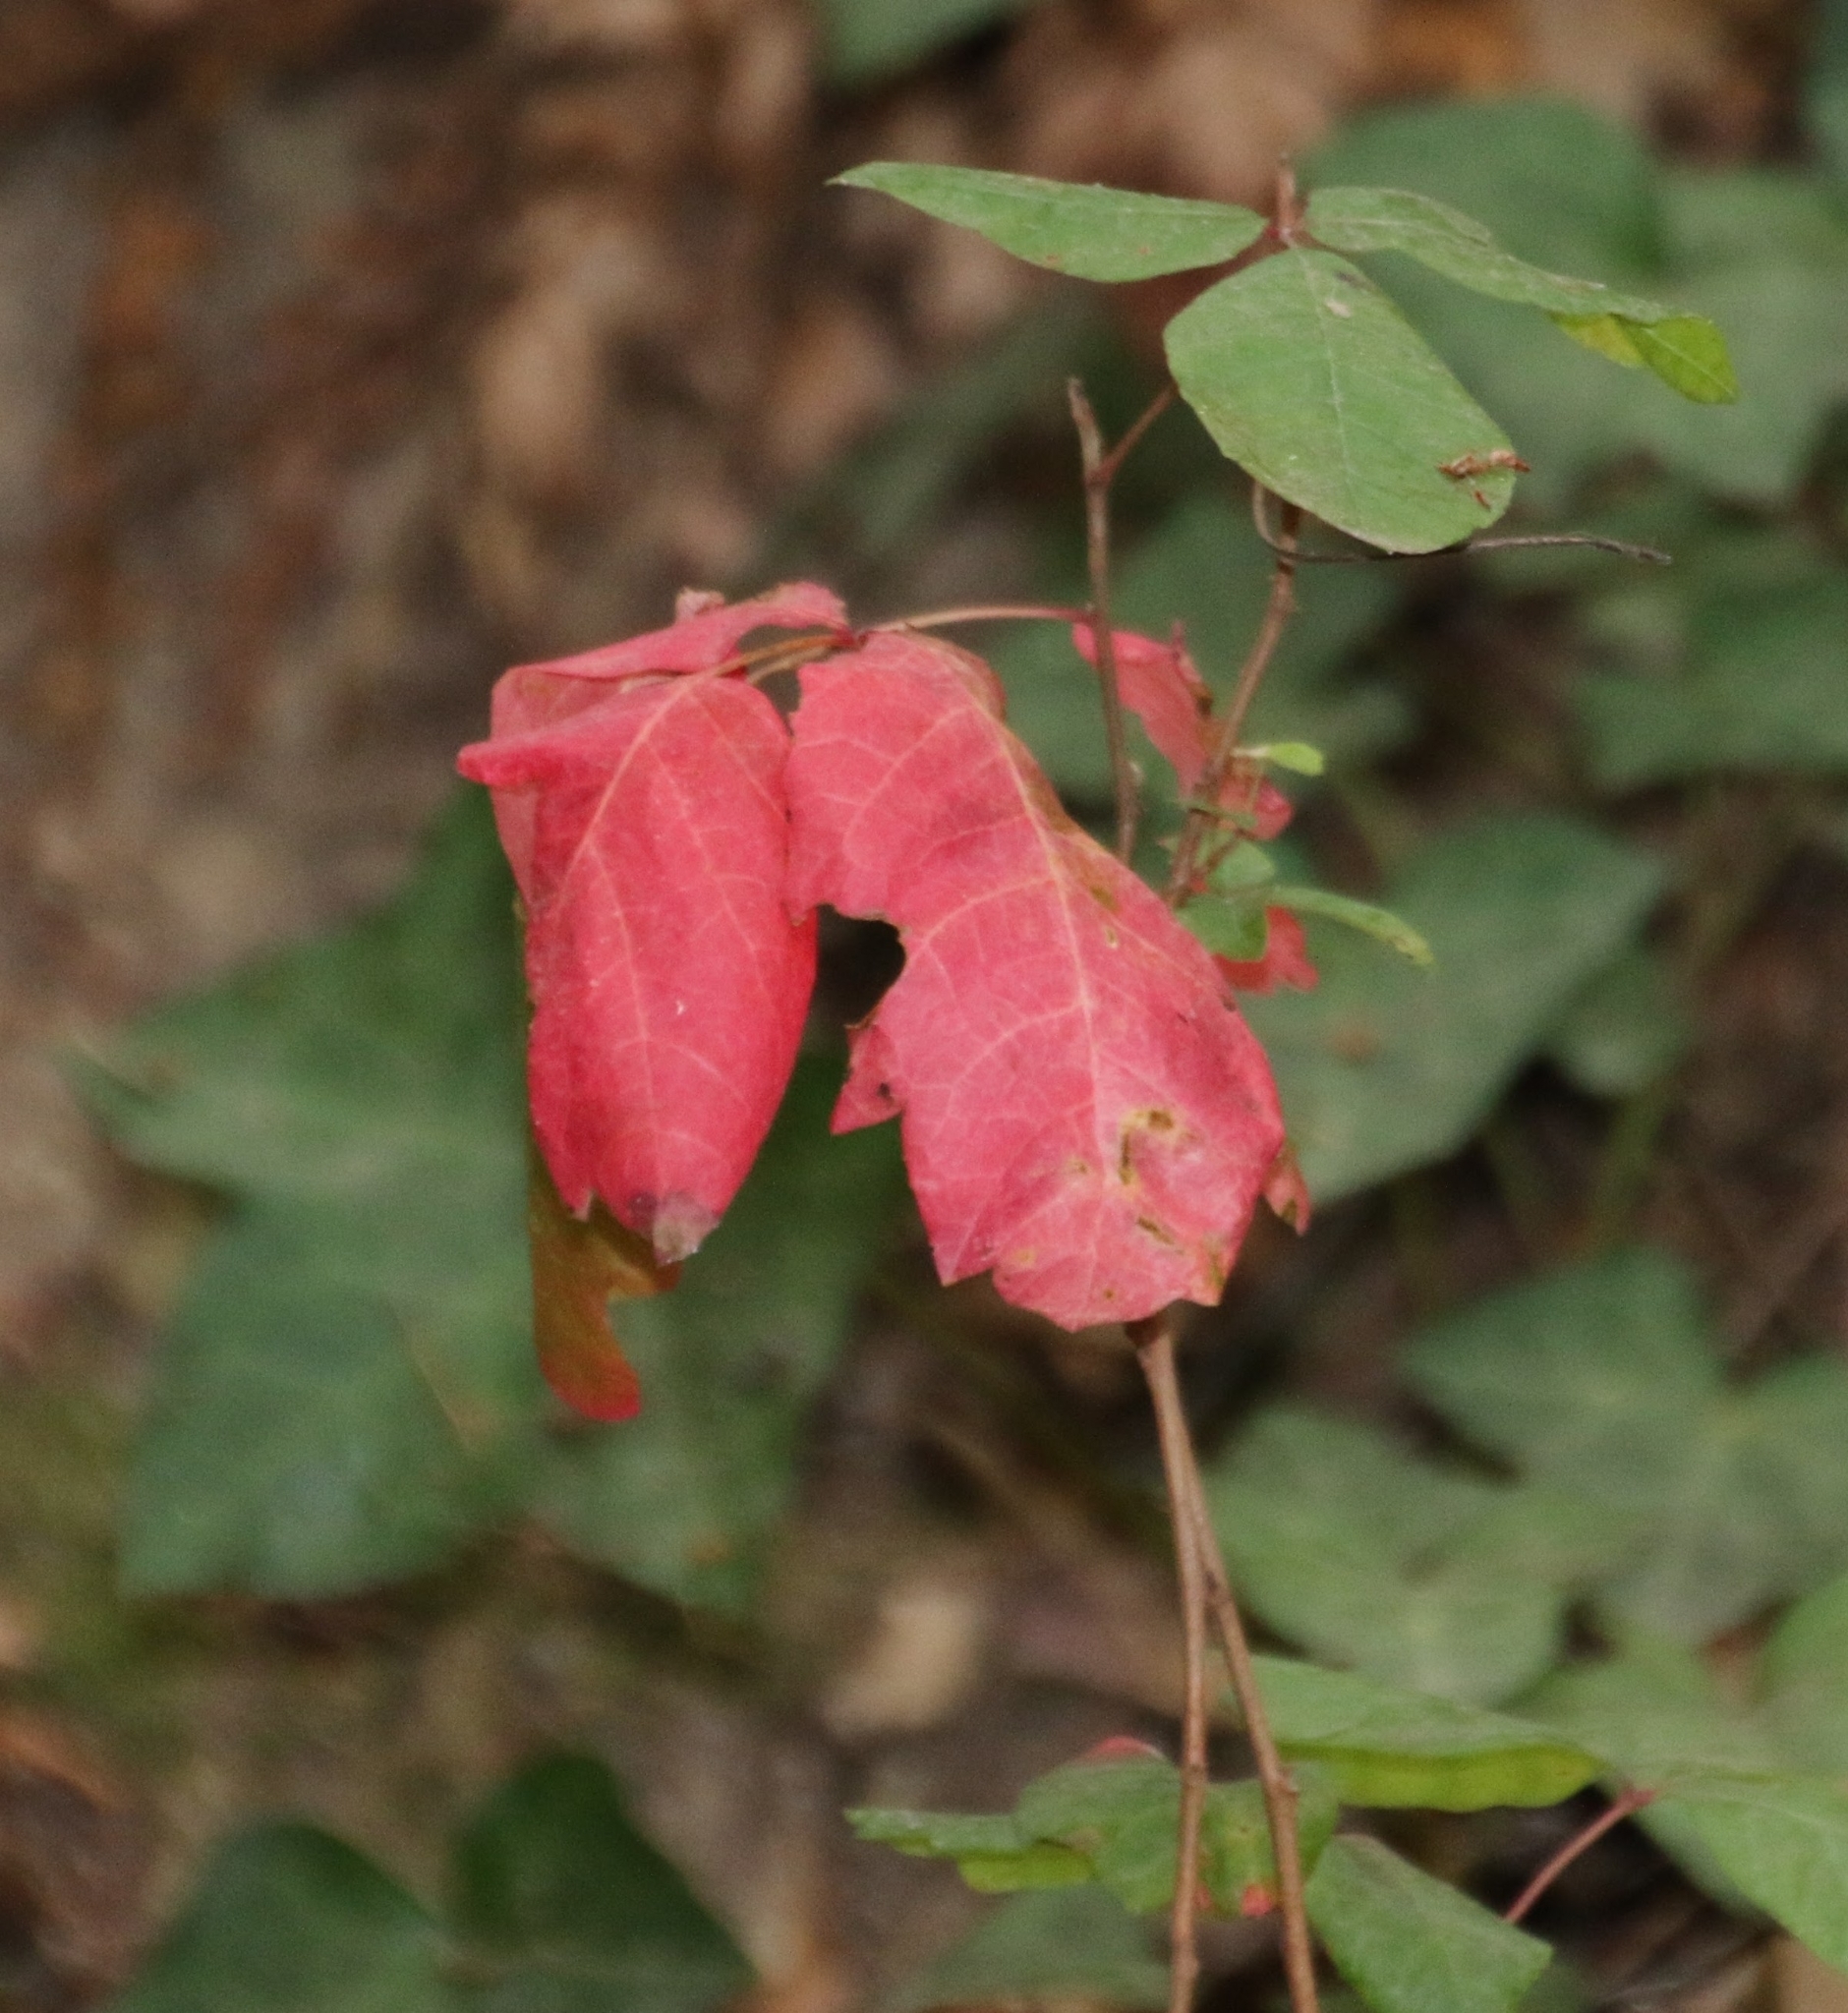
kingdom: Plantae
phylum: Tracheophyta
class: Magnoliopsida
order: Sapindales
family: Anacardiaceae
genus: Toxicodendron
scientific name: Toxicodendron diversilobum
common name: Pacific poison-oak
